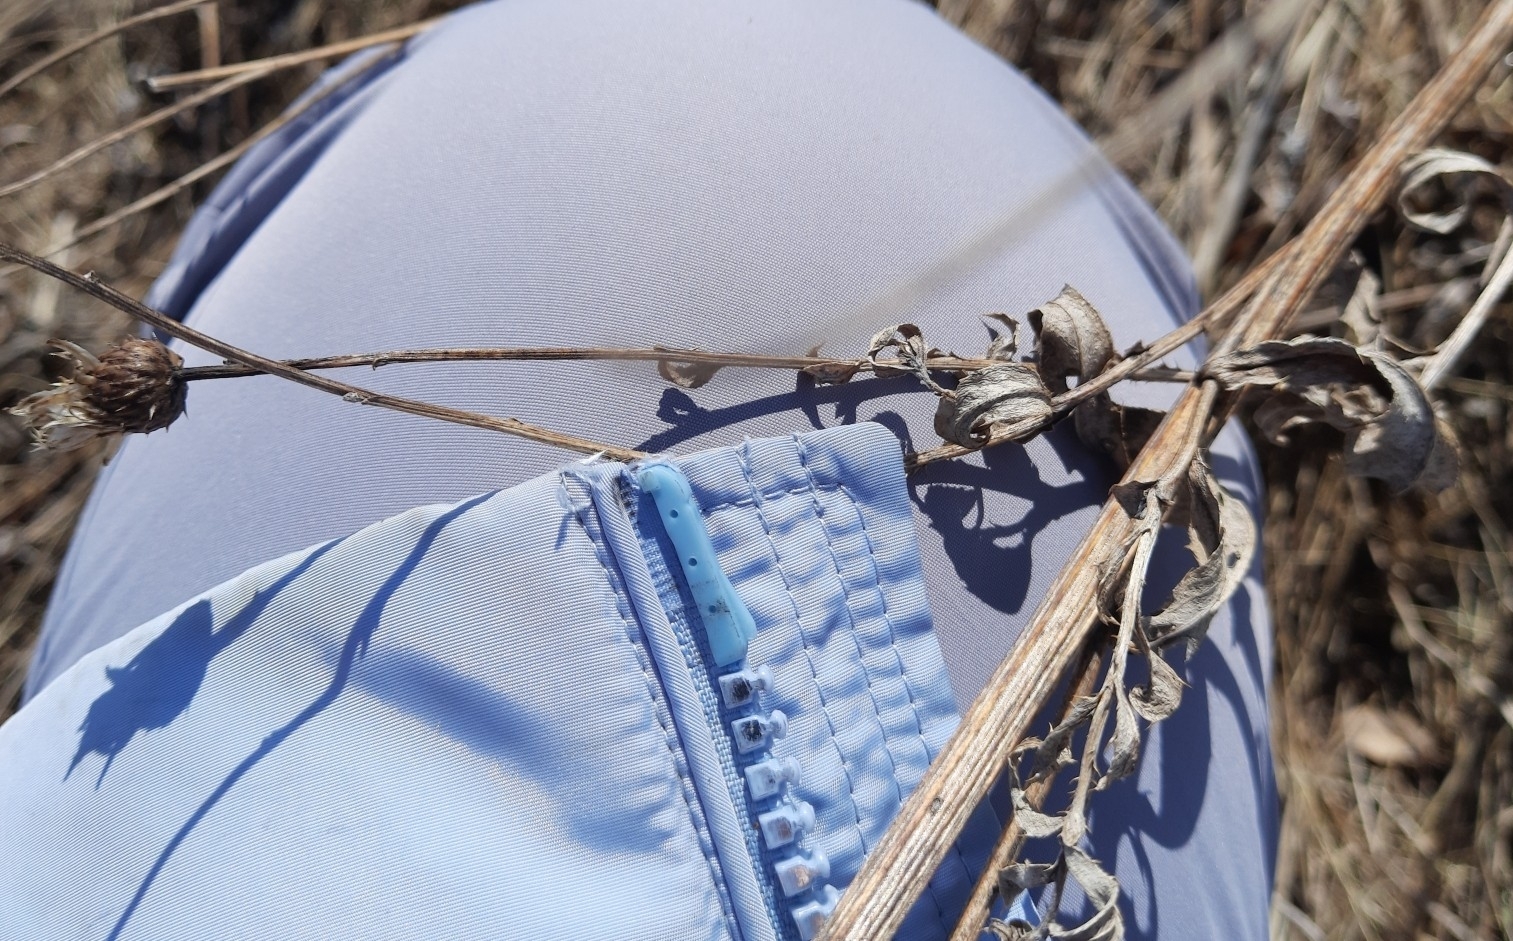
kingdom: Plantae
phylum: Tracheophyta
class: Magnoliopsida
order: Asterales
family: Asteraceae
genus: Cirsium
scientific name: Cirsium arvense
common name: Creeping thistle
